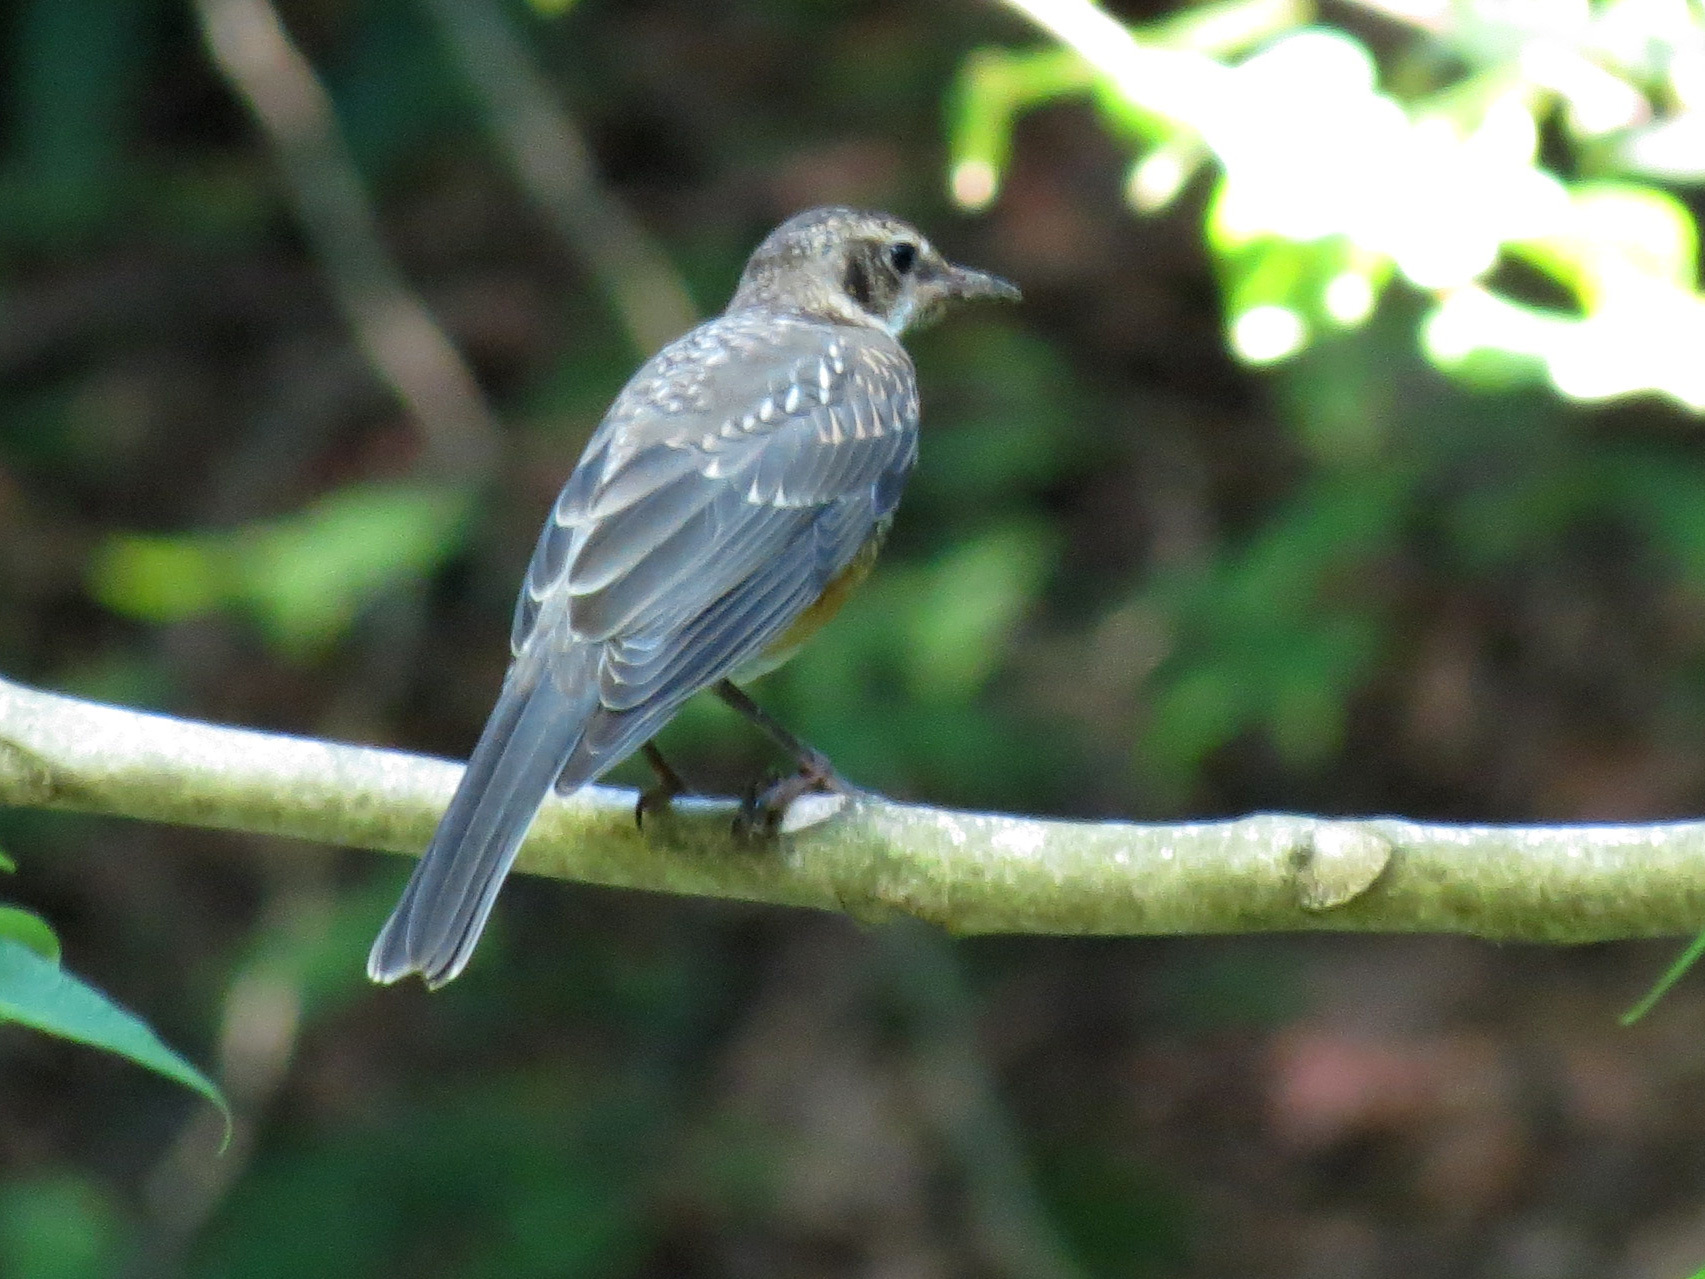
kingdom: Animalia
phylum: Chordata
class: Aves
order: Passeriformes
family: Turdidae
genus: Turdus
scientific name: Turdus migratorius
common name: American robin
